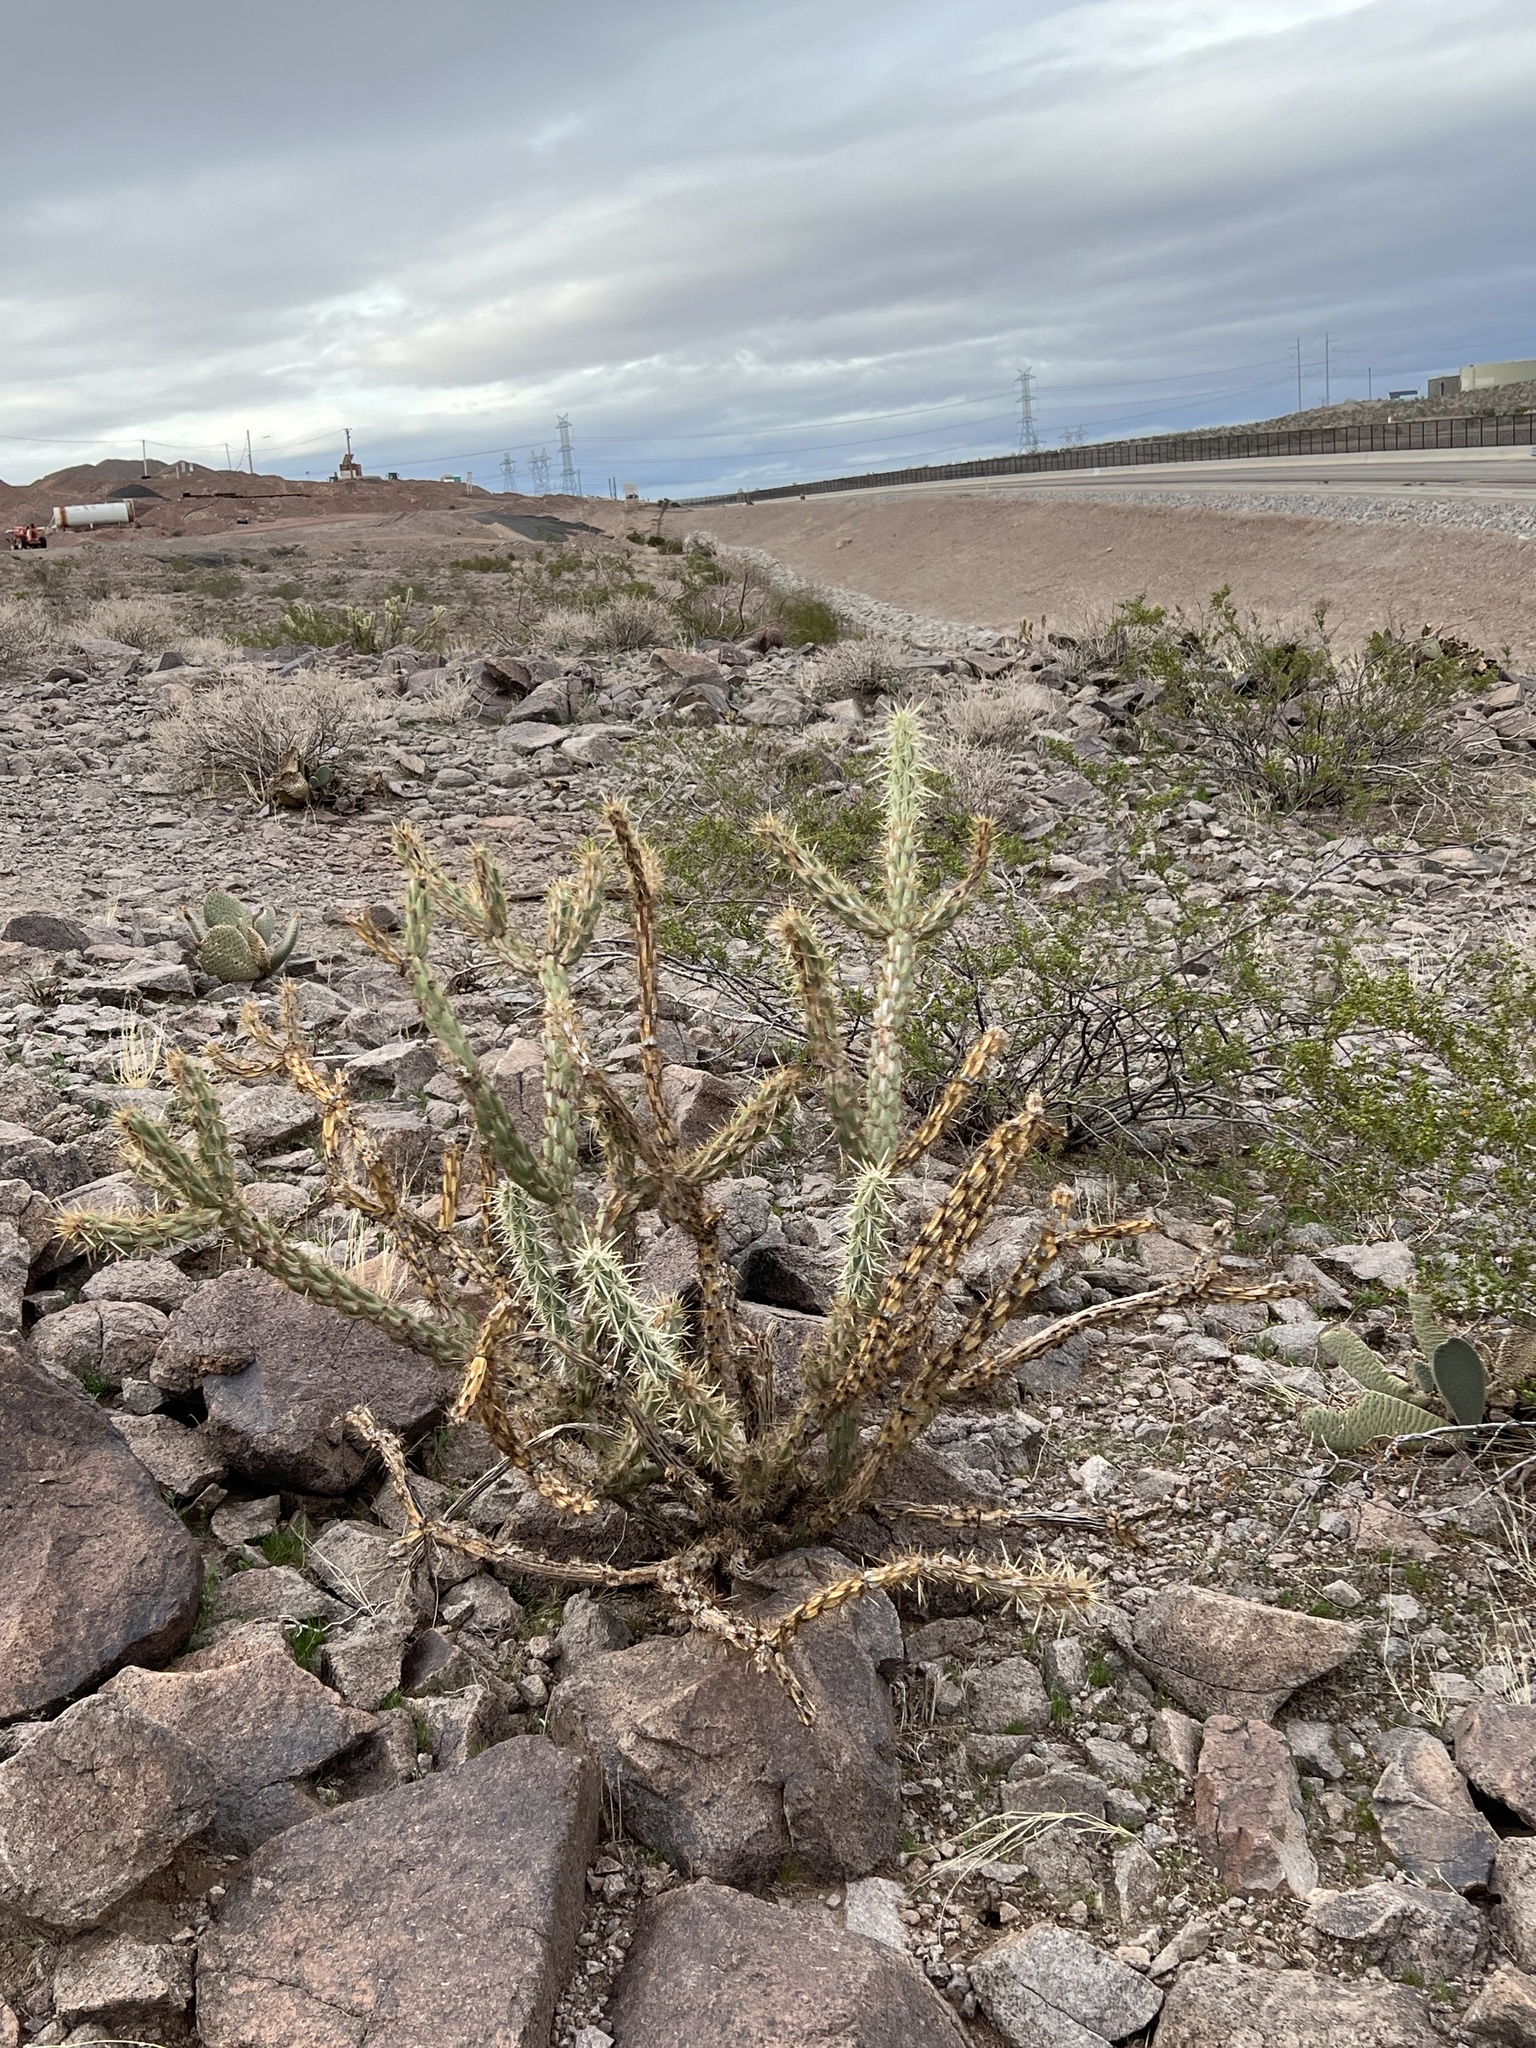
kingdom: Plantae
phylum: Tracheophyta
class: Magnoliopsida
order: Caryophyllales
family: Cactaceae
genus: Cylindropuntia
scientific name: Cylindropuntia acanthocarpa
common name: Buckhorn cholla
